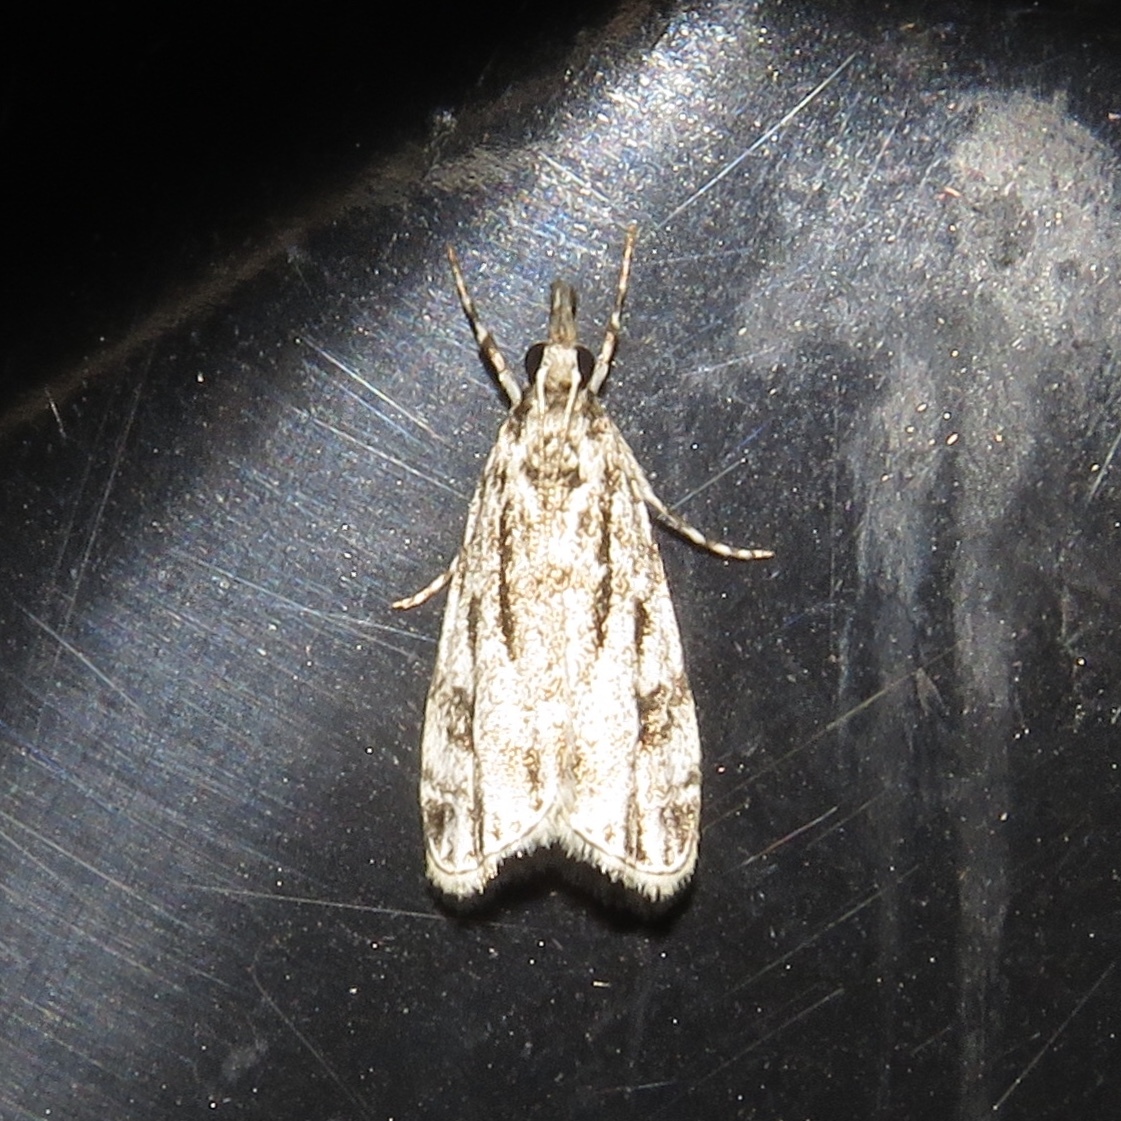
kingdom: Animalia
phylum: Arthropoda
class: Insecta
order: Lepidoptera
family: Crambidae
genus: Eudonia
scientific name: Eudonia strigalis
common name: Striped eudonia moth
